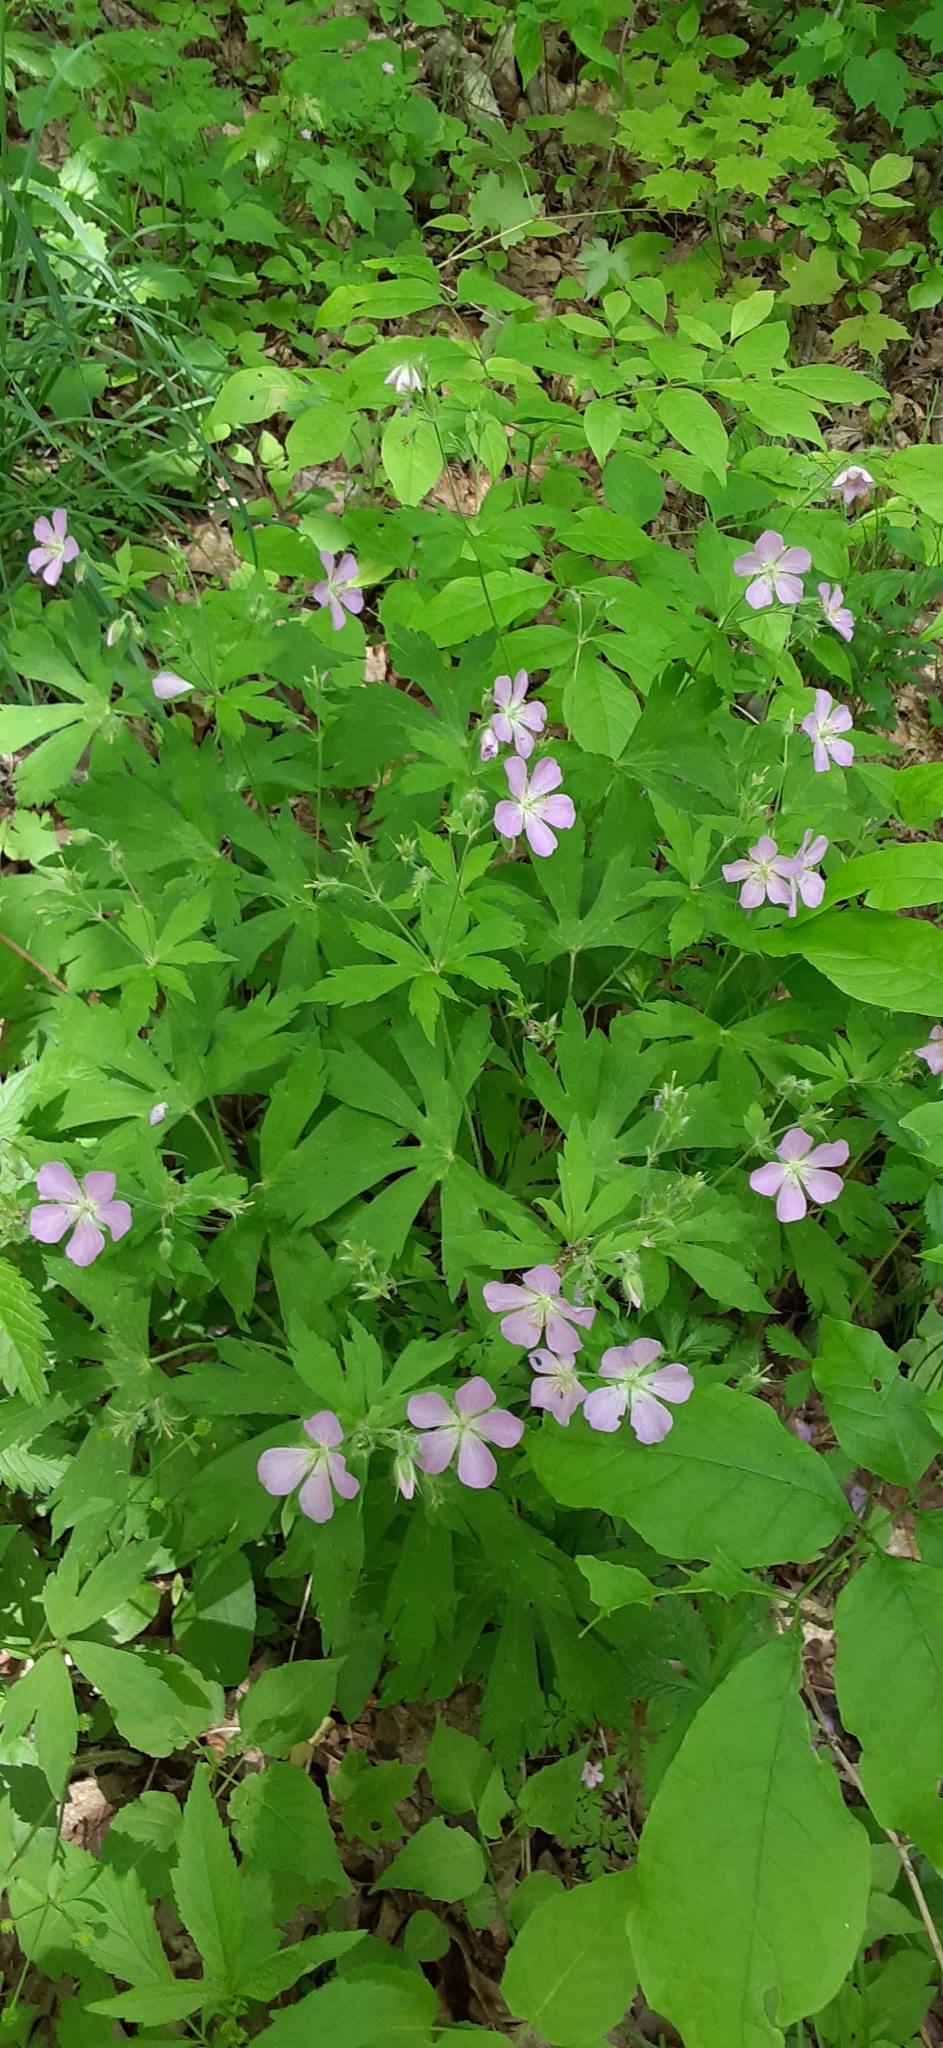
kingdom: Plantae
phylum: Tracheophyta
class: Magnoliopsida
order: Geraniales
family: Geraniaceae
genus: Geranium
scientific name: Geranium maculatum
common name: Spotted geranium
